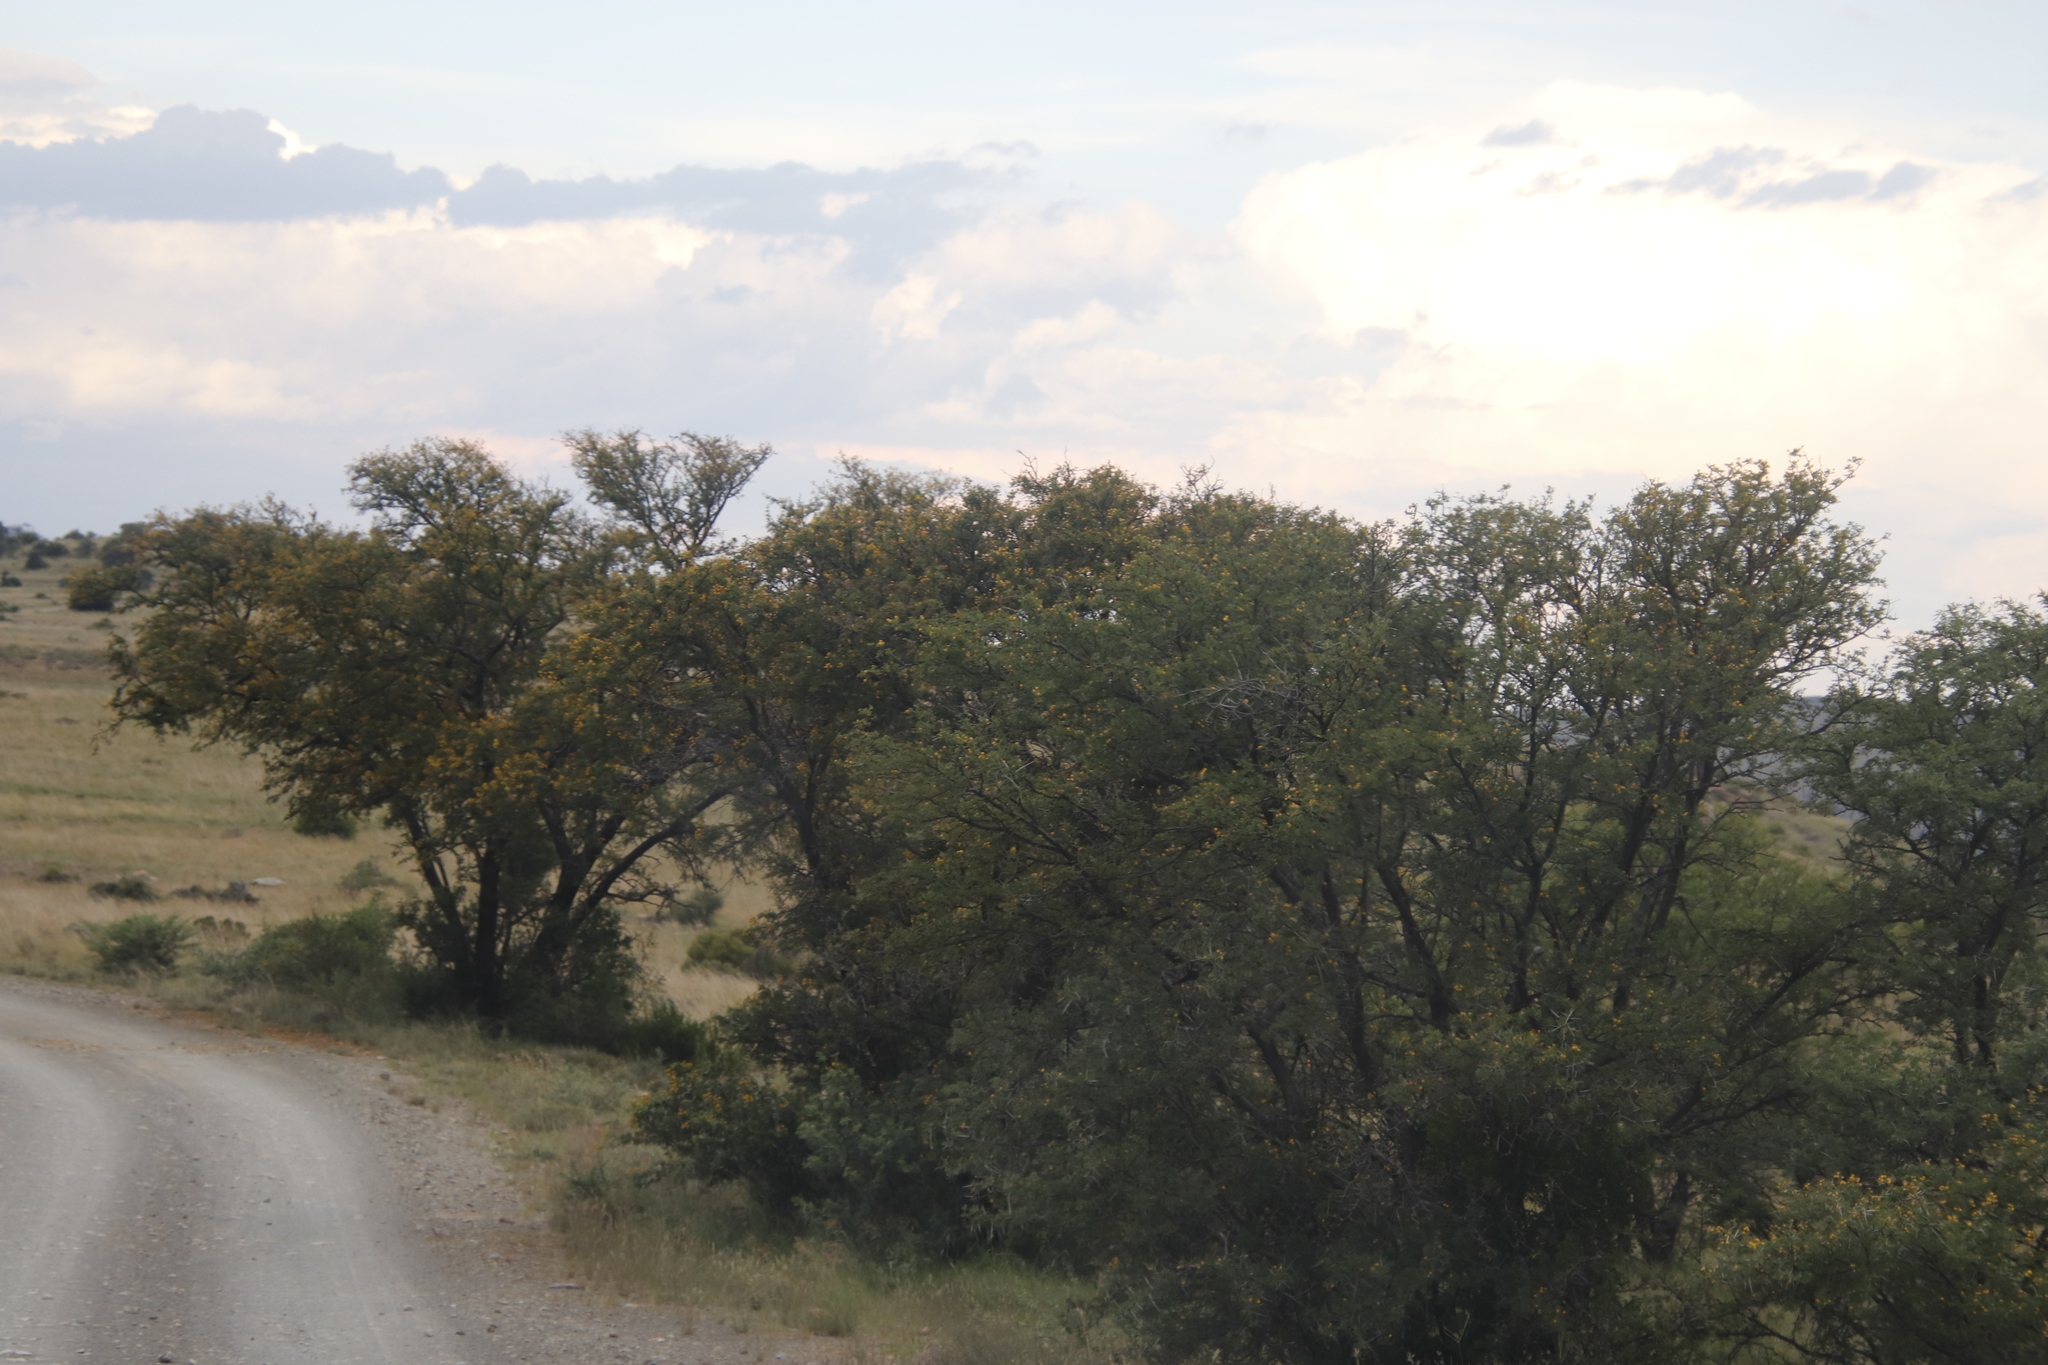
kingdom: Plantae
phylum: Tracheophyta
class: Magnoliopsida
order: Fabales
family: Fabaceae
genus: Vachellia
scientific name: Vachellia karroo
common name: Sweet thorn
